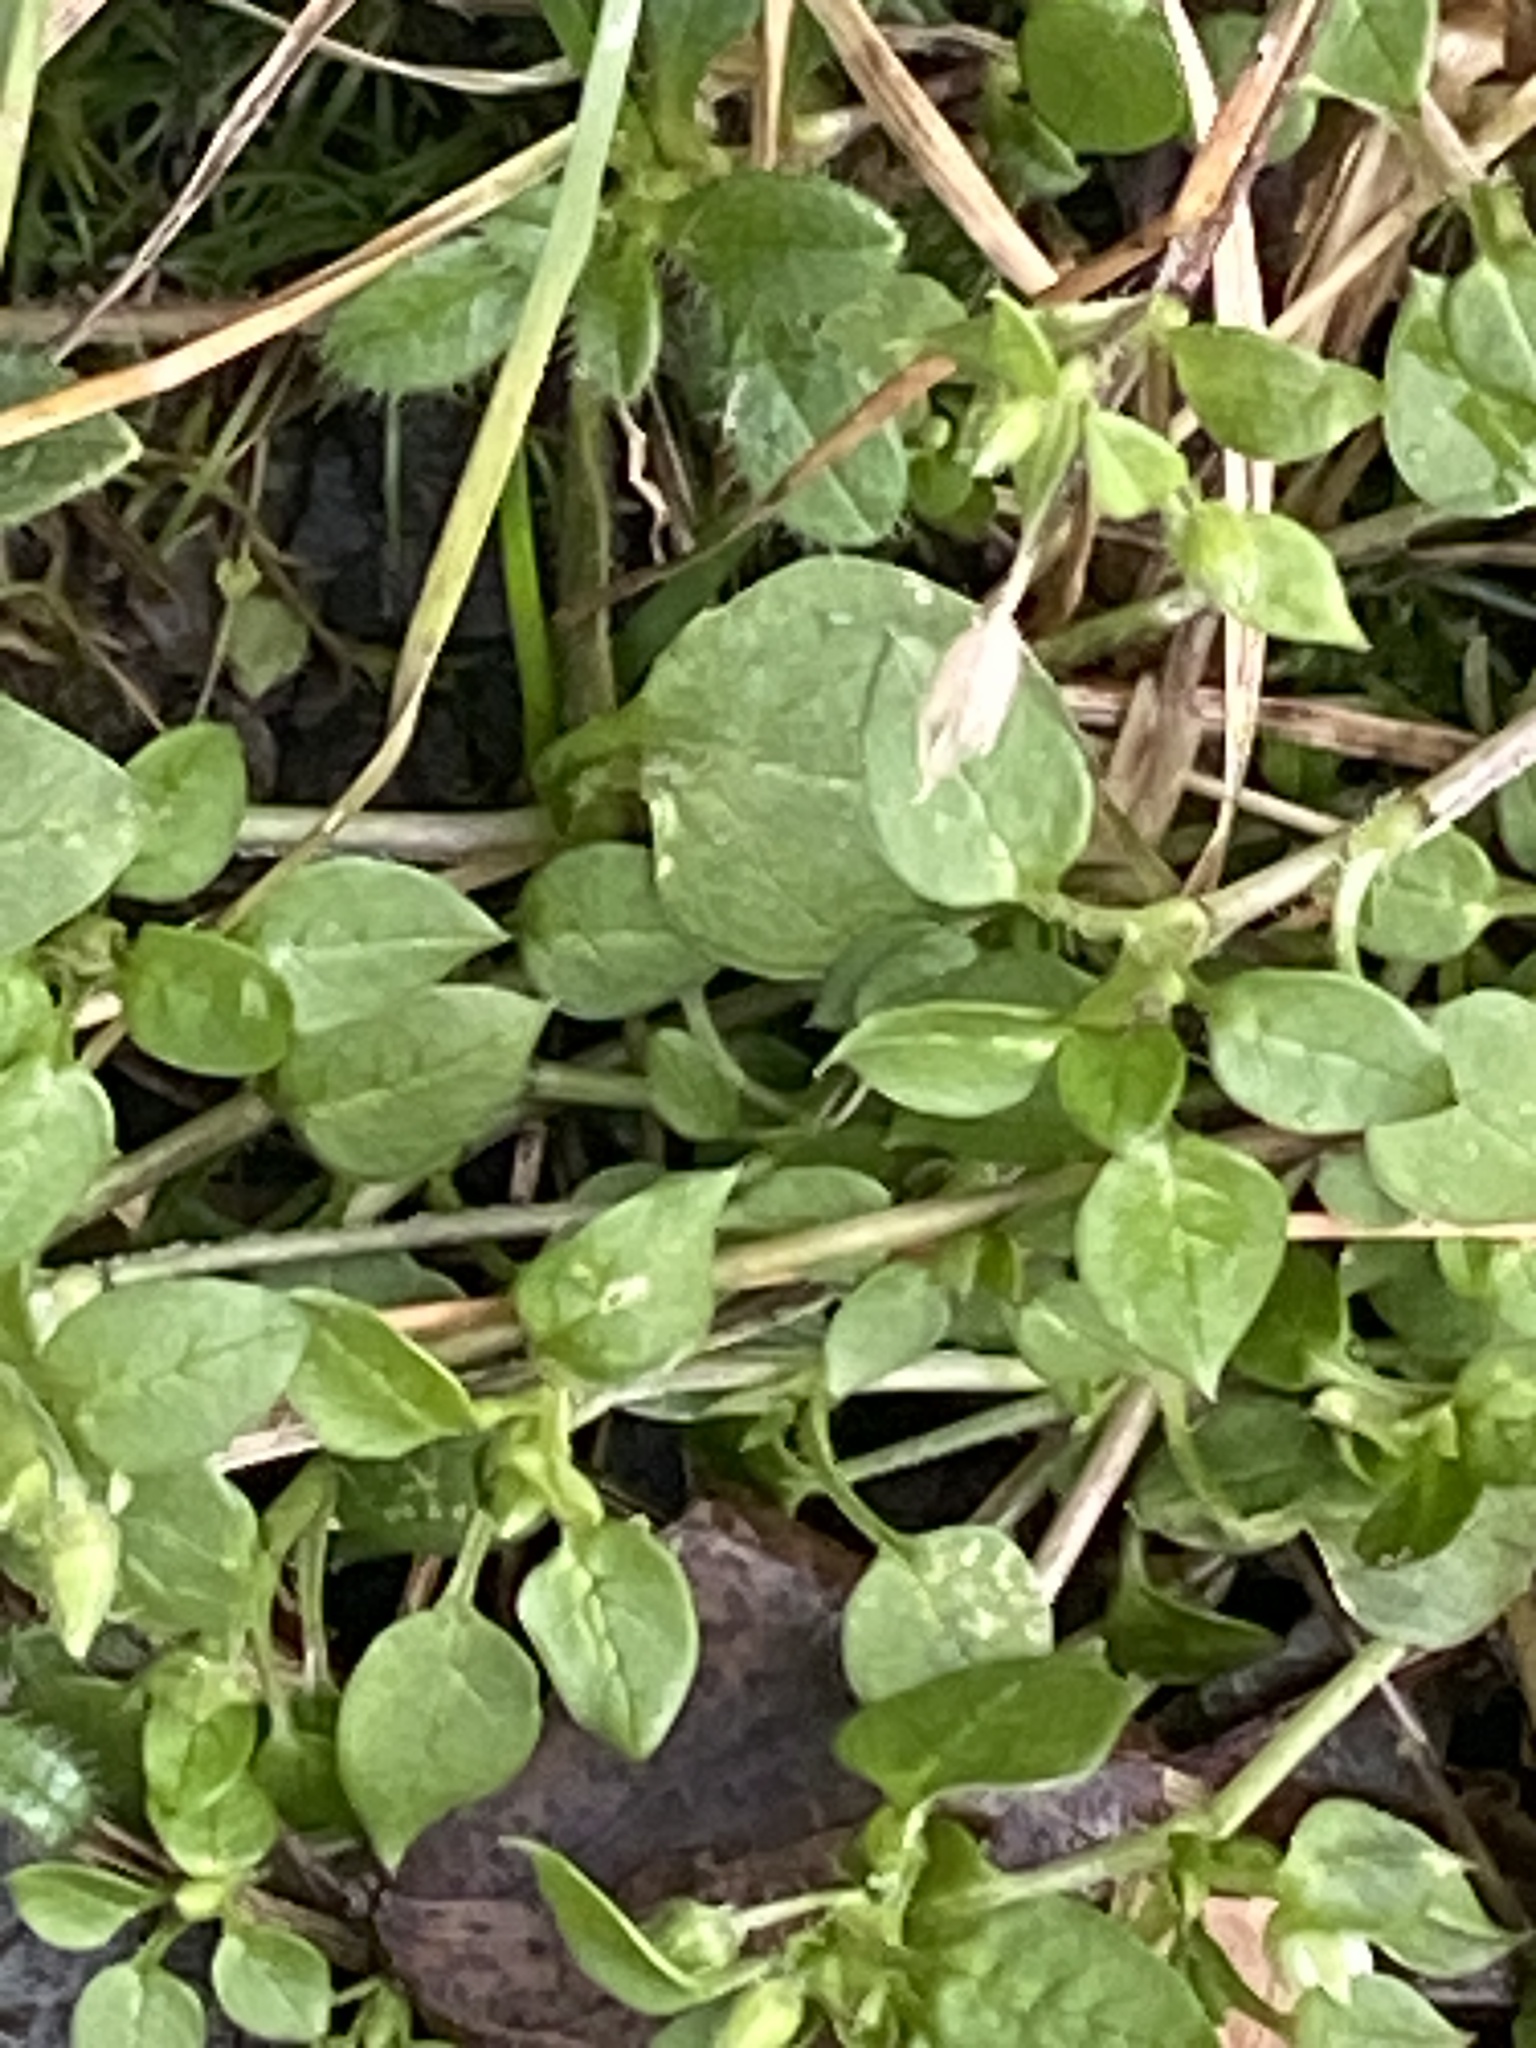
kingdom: Plantae
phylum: Tracheophyta
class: Magnoliopsida
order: Caryophyllales
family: Caryophyllaceae
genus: Stellaria
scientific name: Stellaria media
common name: Common chickweed
